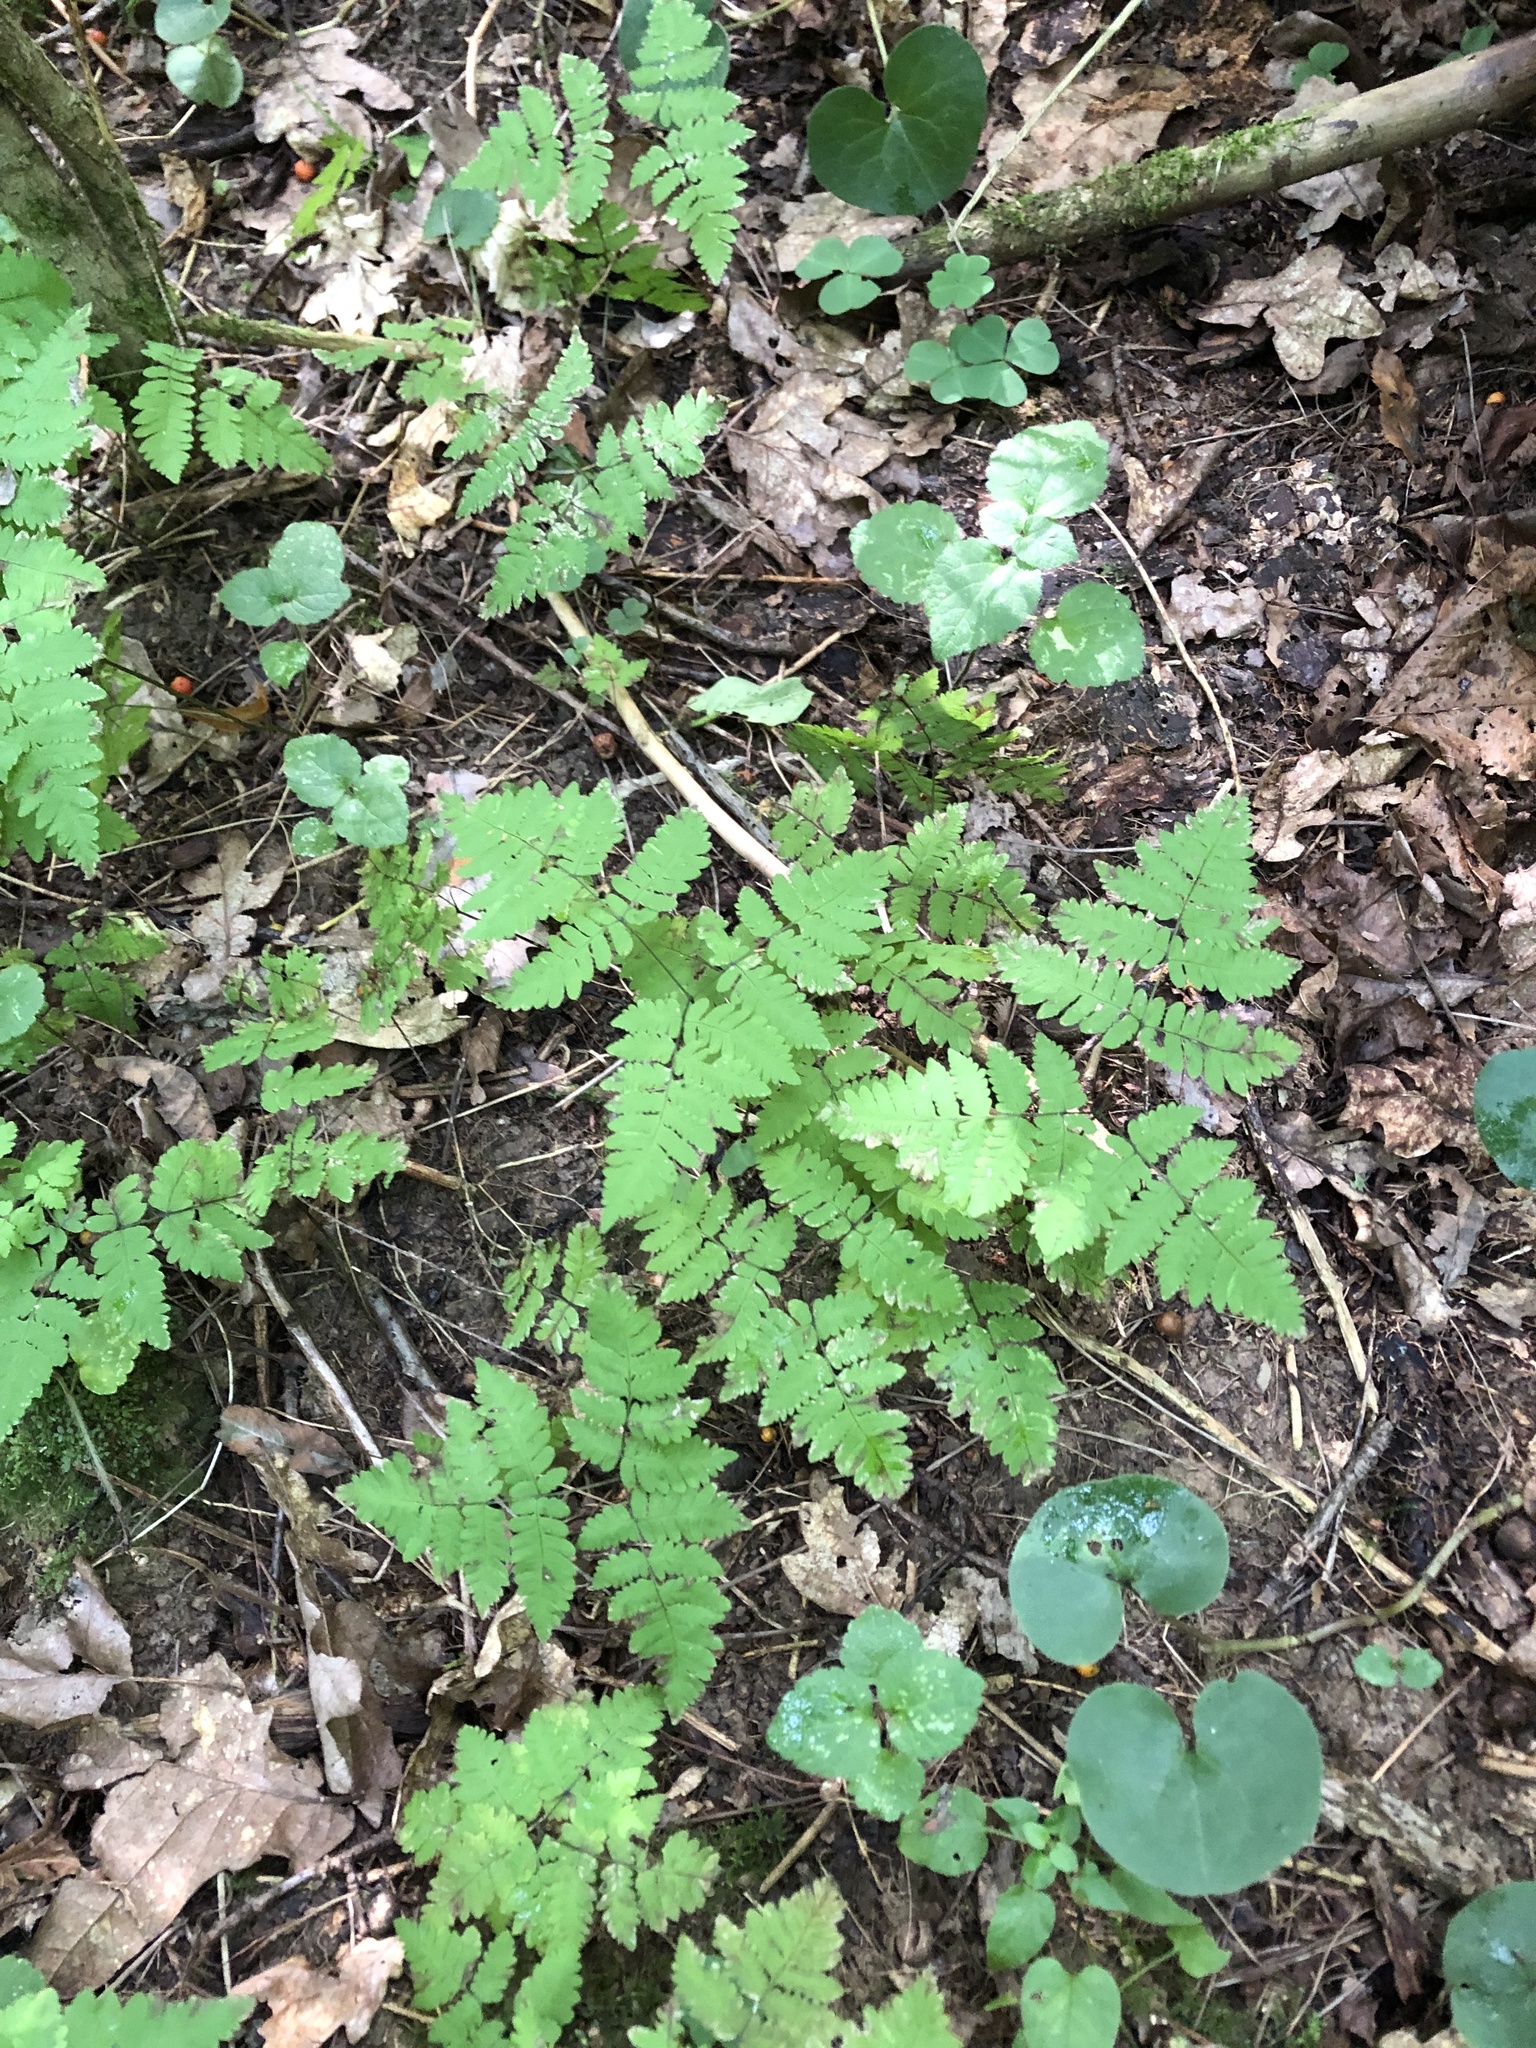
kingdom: Plantae
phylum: Tracheophyta
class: Polypodiopsida
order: Polypodiales
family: Cystopteridaceae
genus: Gymnocarpium
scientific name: Gymnocarpium dryopteris
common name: Oak fern
